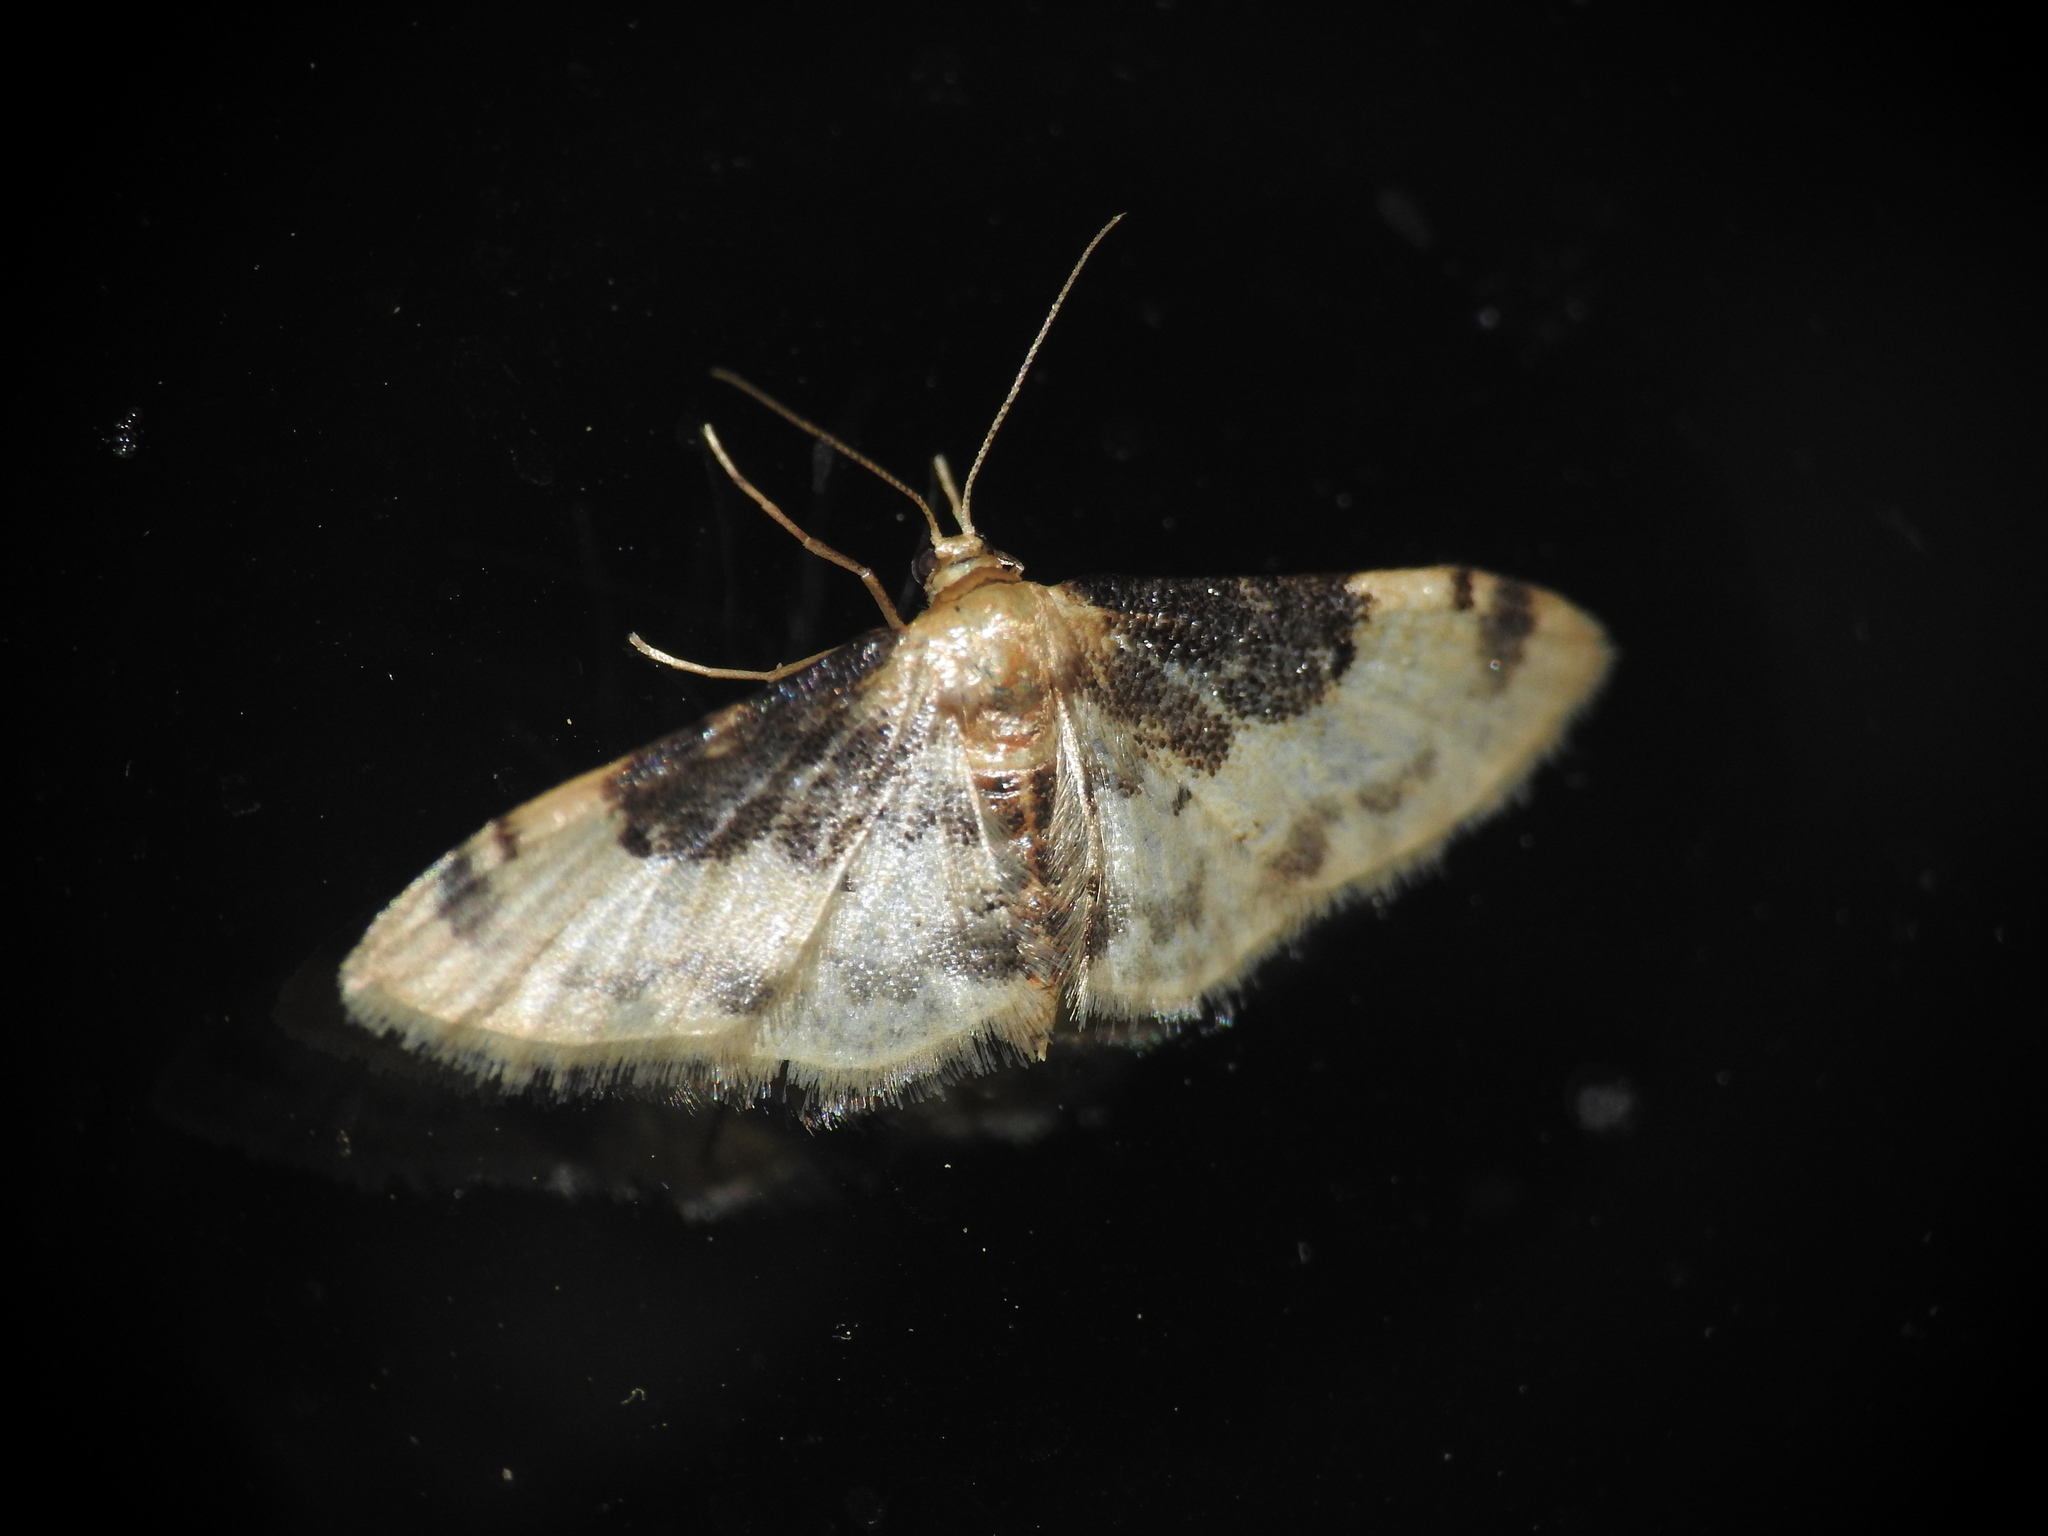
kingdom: Animalia
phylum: Arthropoda
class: Insecta
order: Lepidoptera
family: Geometridae
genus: Idaea
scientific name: Idaea filicata
